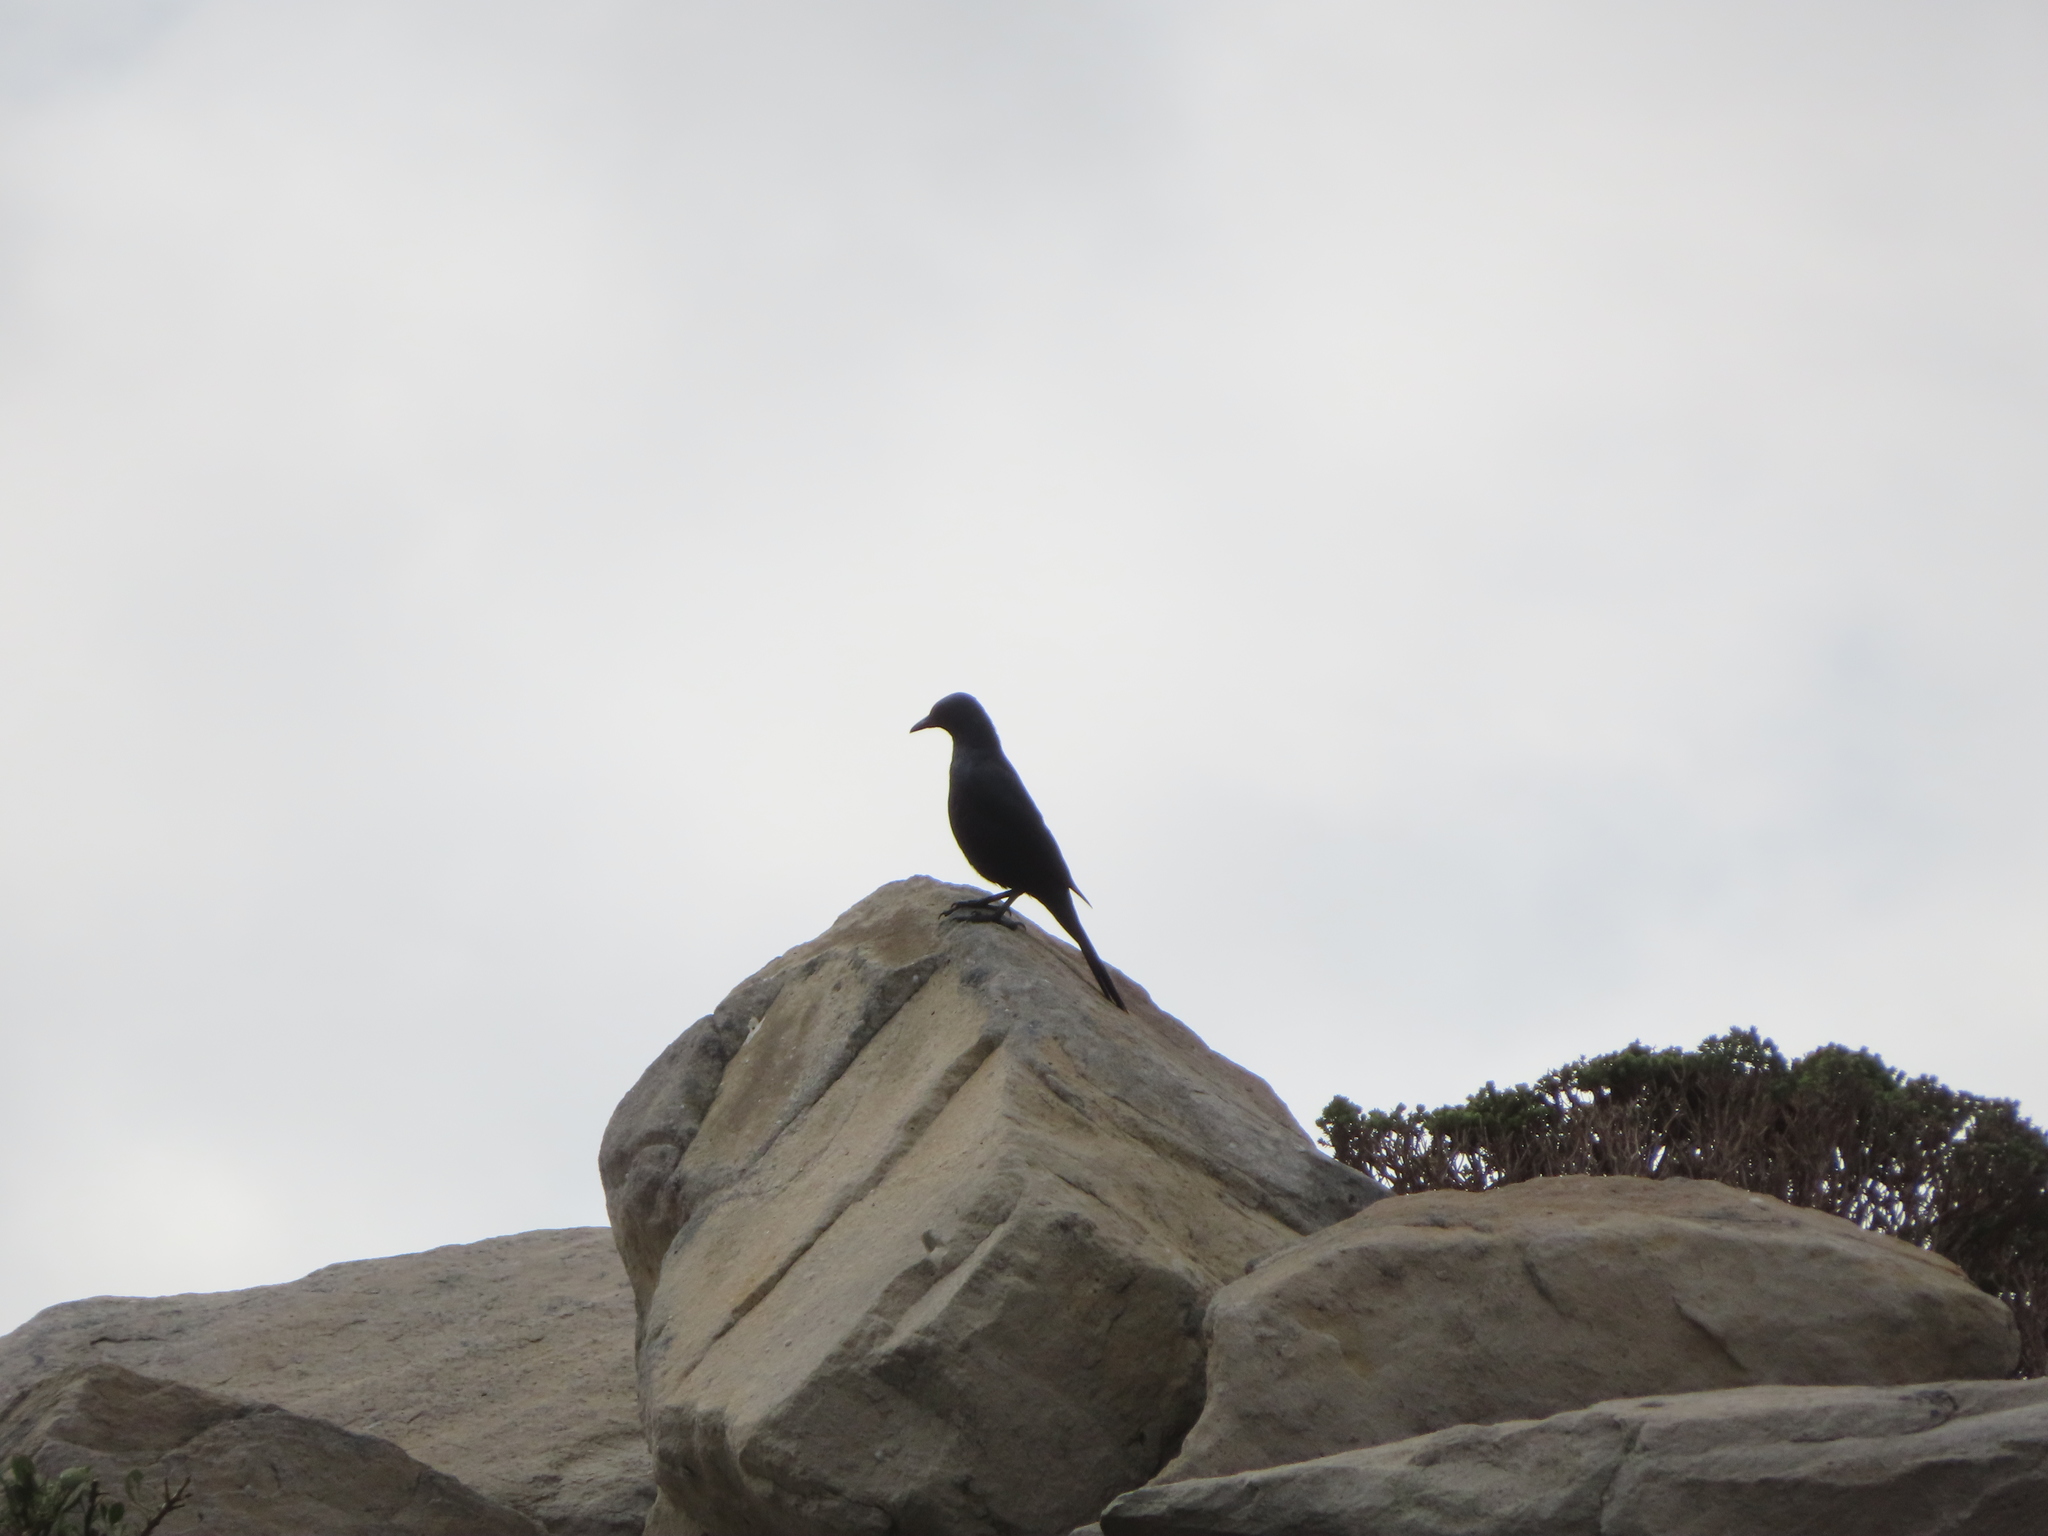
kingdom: Animalia
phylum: Chordata
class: Aves
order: Passeriformes
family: Sturnidae
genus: Onychognathus
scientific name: Onychognathus morio
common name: Red-winged starling
